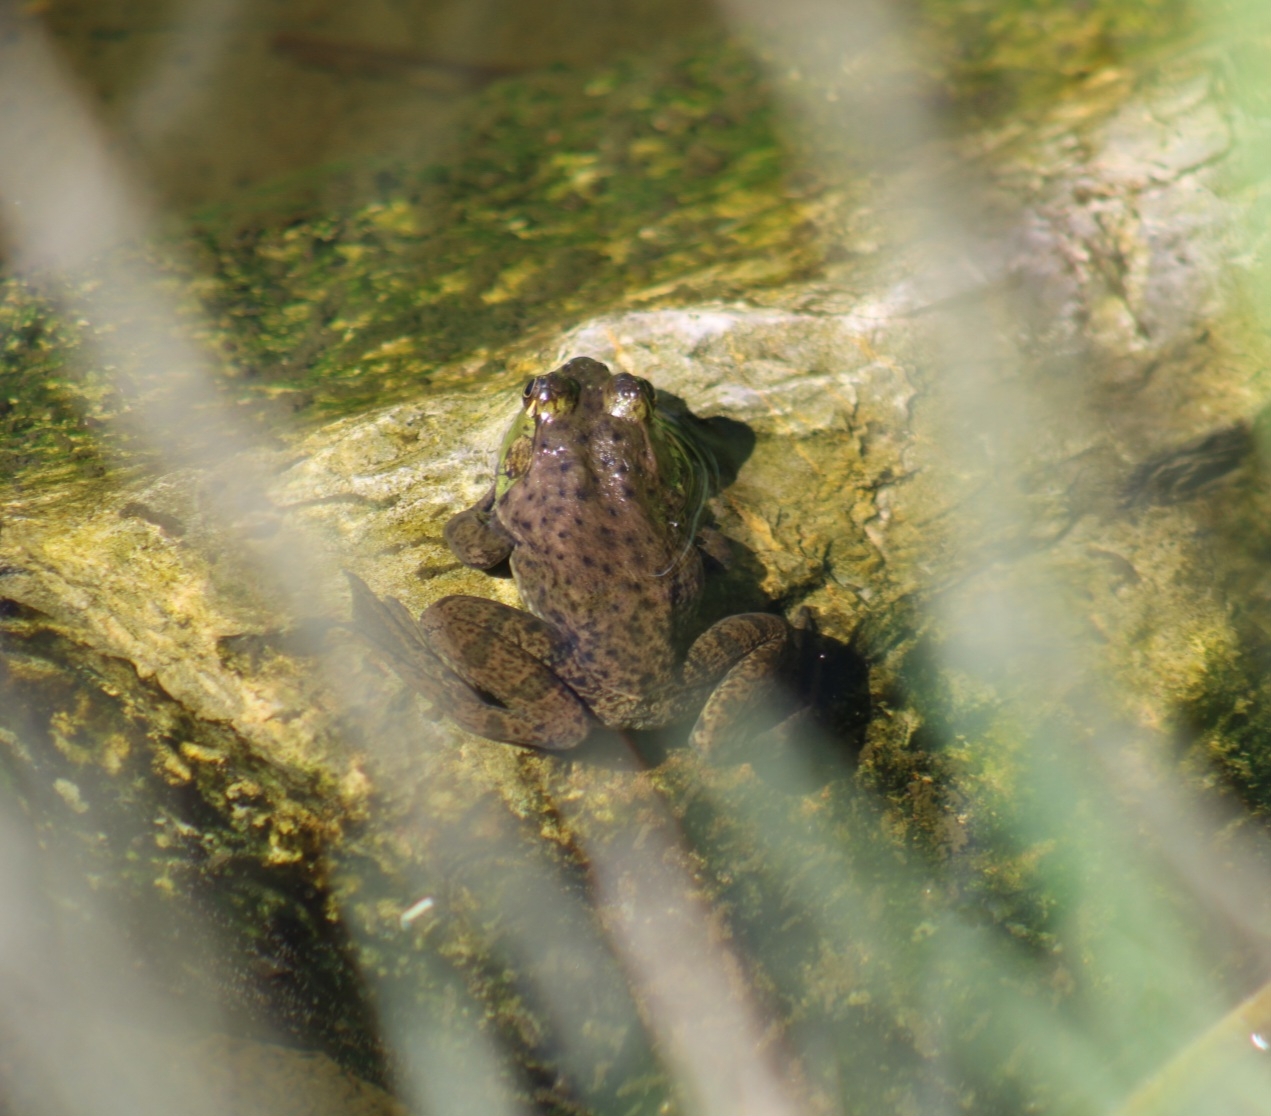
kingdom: Animalia
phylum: Chordata
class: Amphibia
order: Anura
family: Ranidae
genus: Lithobates
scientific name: Lithobates catesbeianus
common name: American bullfrog
